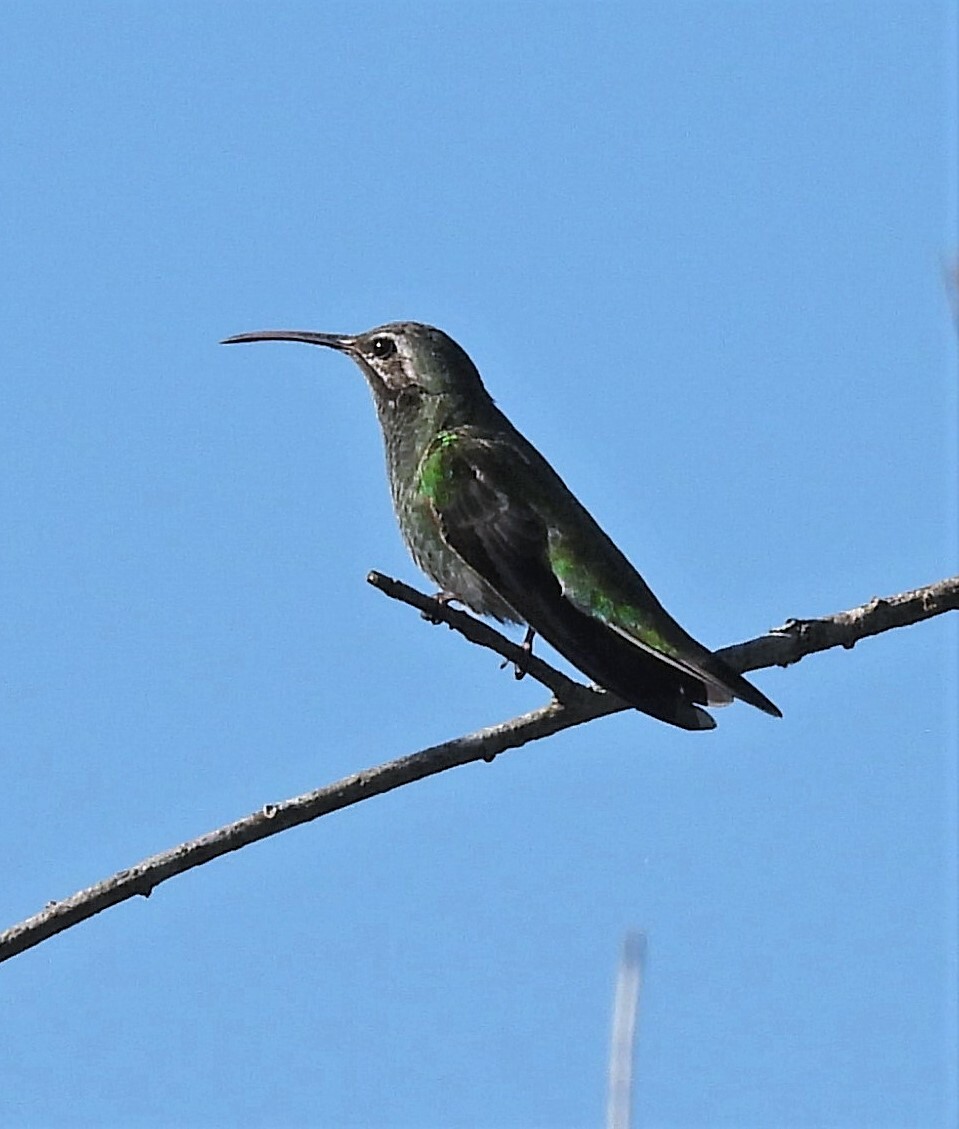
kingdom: Animalia
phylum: Chordata
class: Aves
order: Apodiformes
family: Trochilidae
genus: Polytmus
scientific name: Polytmus guainumbi
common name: White-tailed goldenthroat
